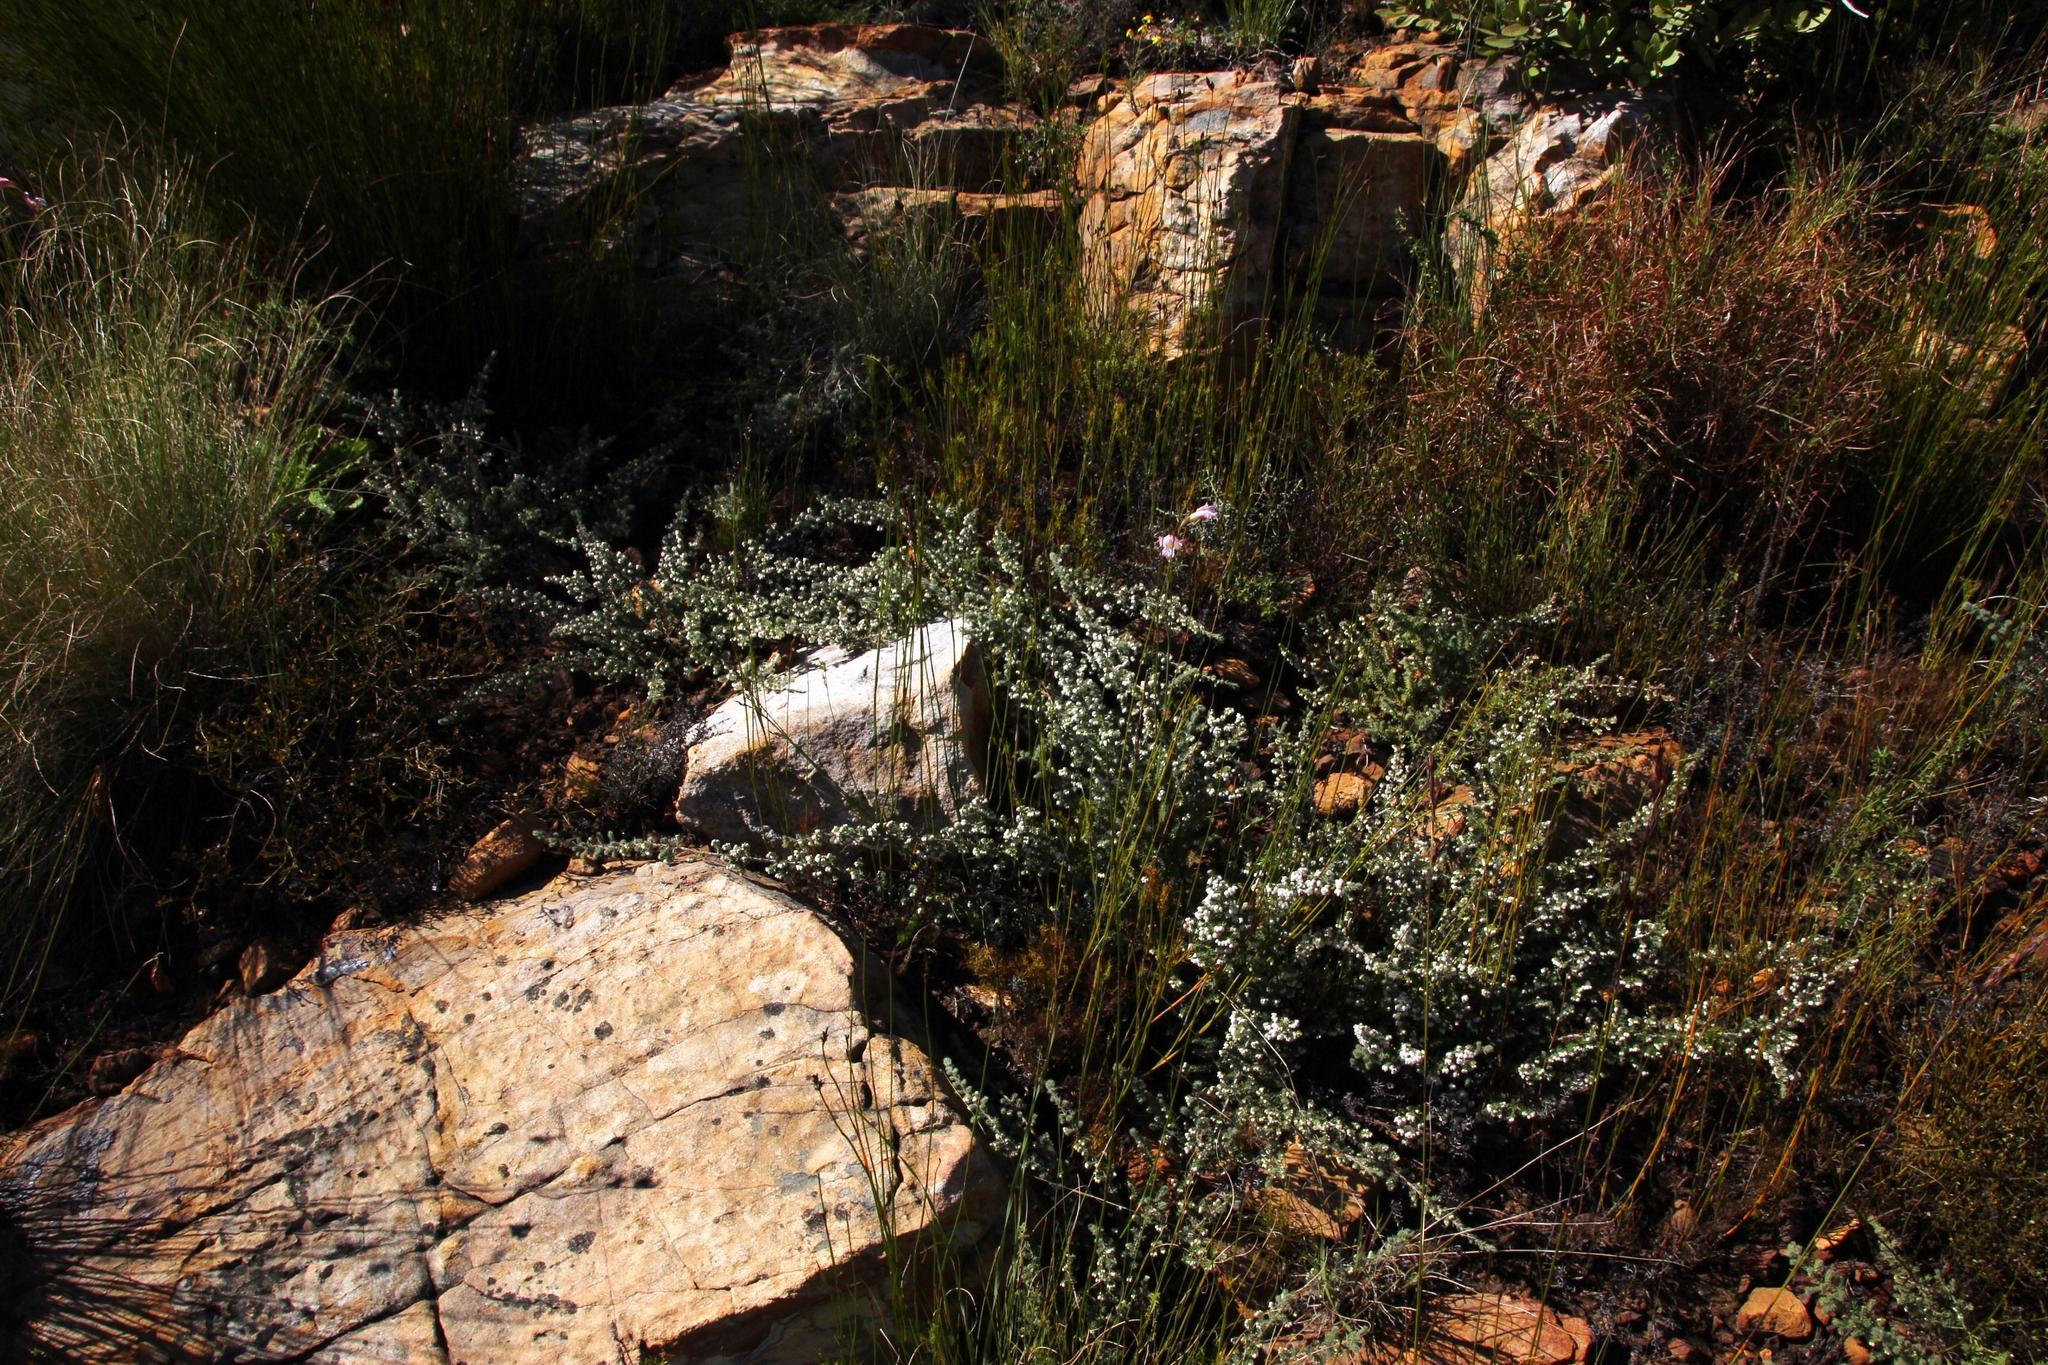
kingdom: Plantae
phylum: Tracheophyta
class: Magnoliopsida
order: Ericales
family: Ericaceae
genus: Erica
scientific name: Erica totta
